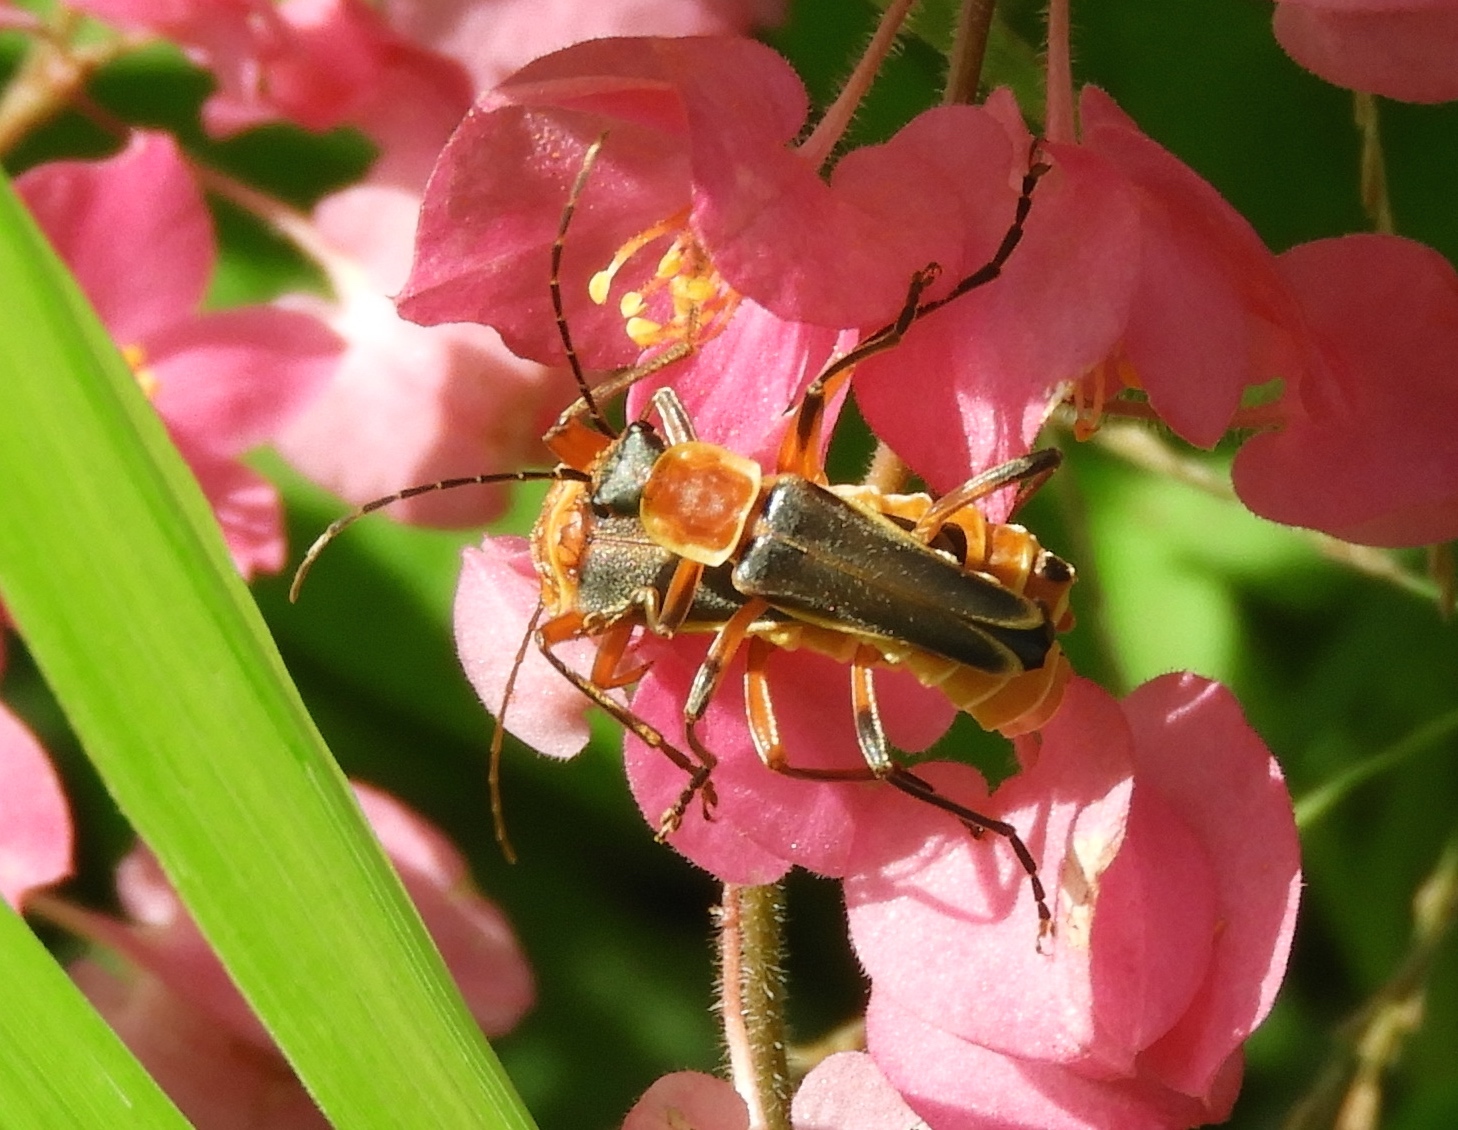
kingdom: Animalia
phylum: Arthropoda
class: Insecta
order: Coleoptera
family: Cantharidae
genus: Chauliognathus
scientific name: Chauliognathus
